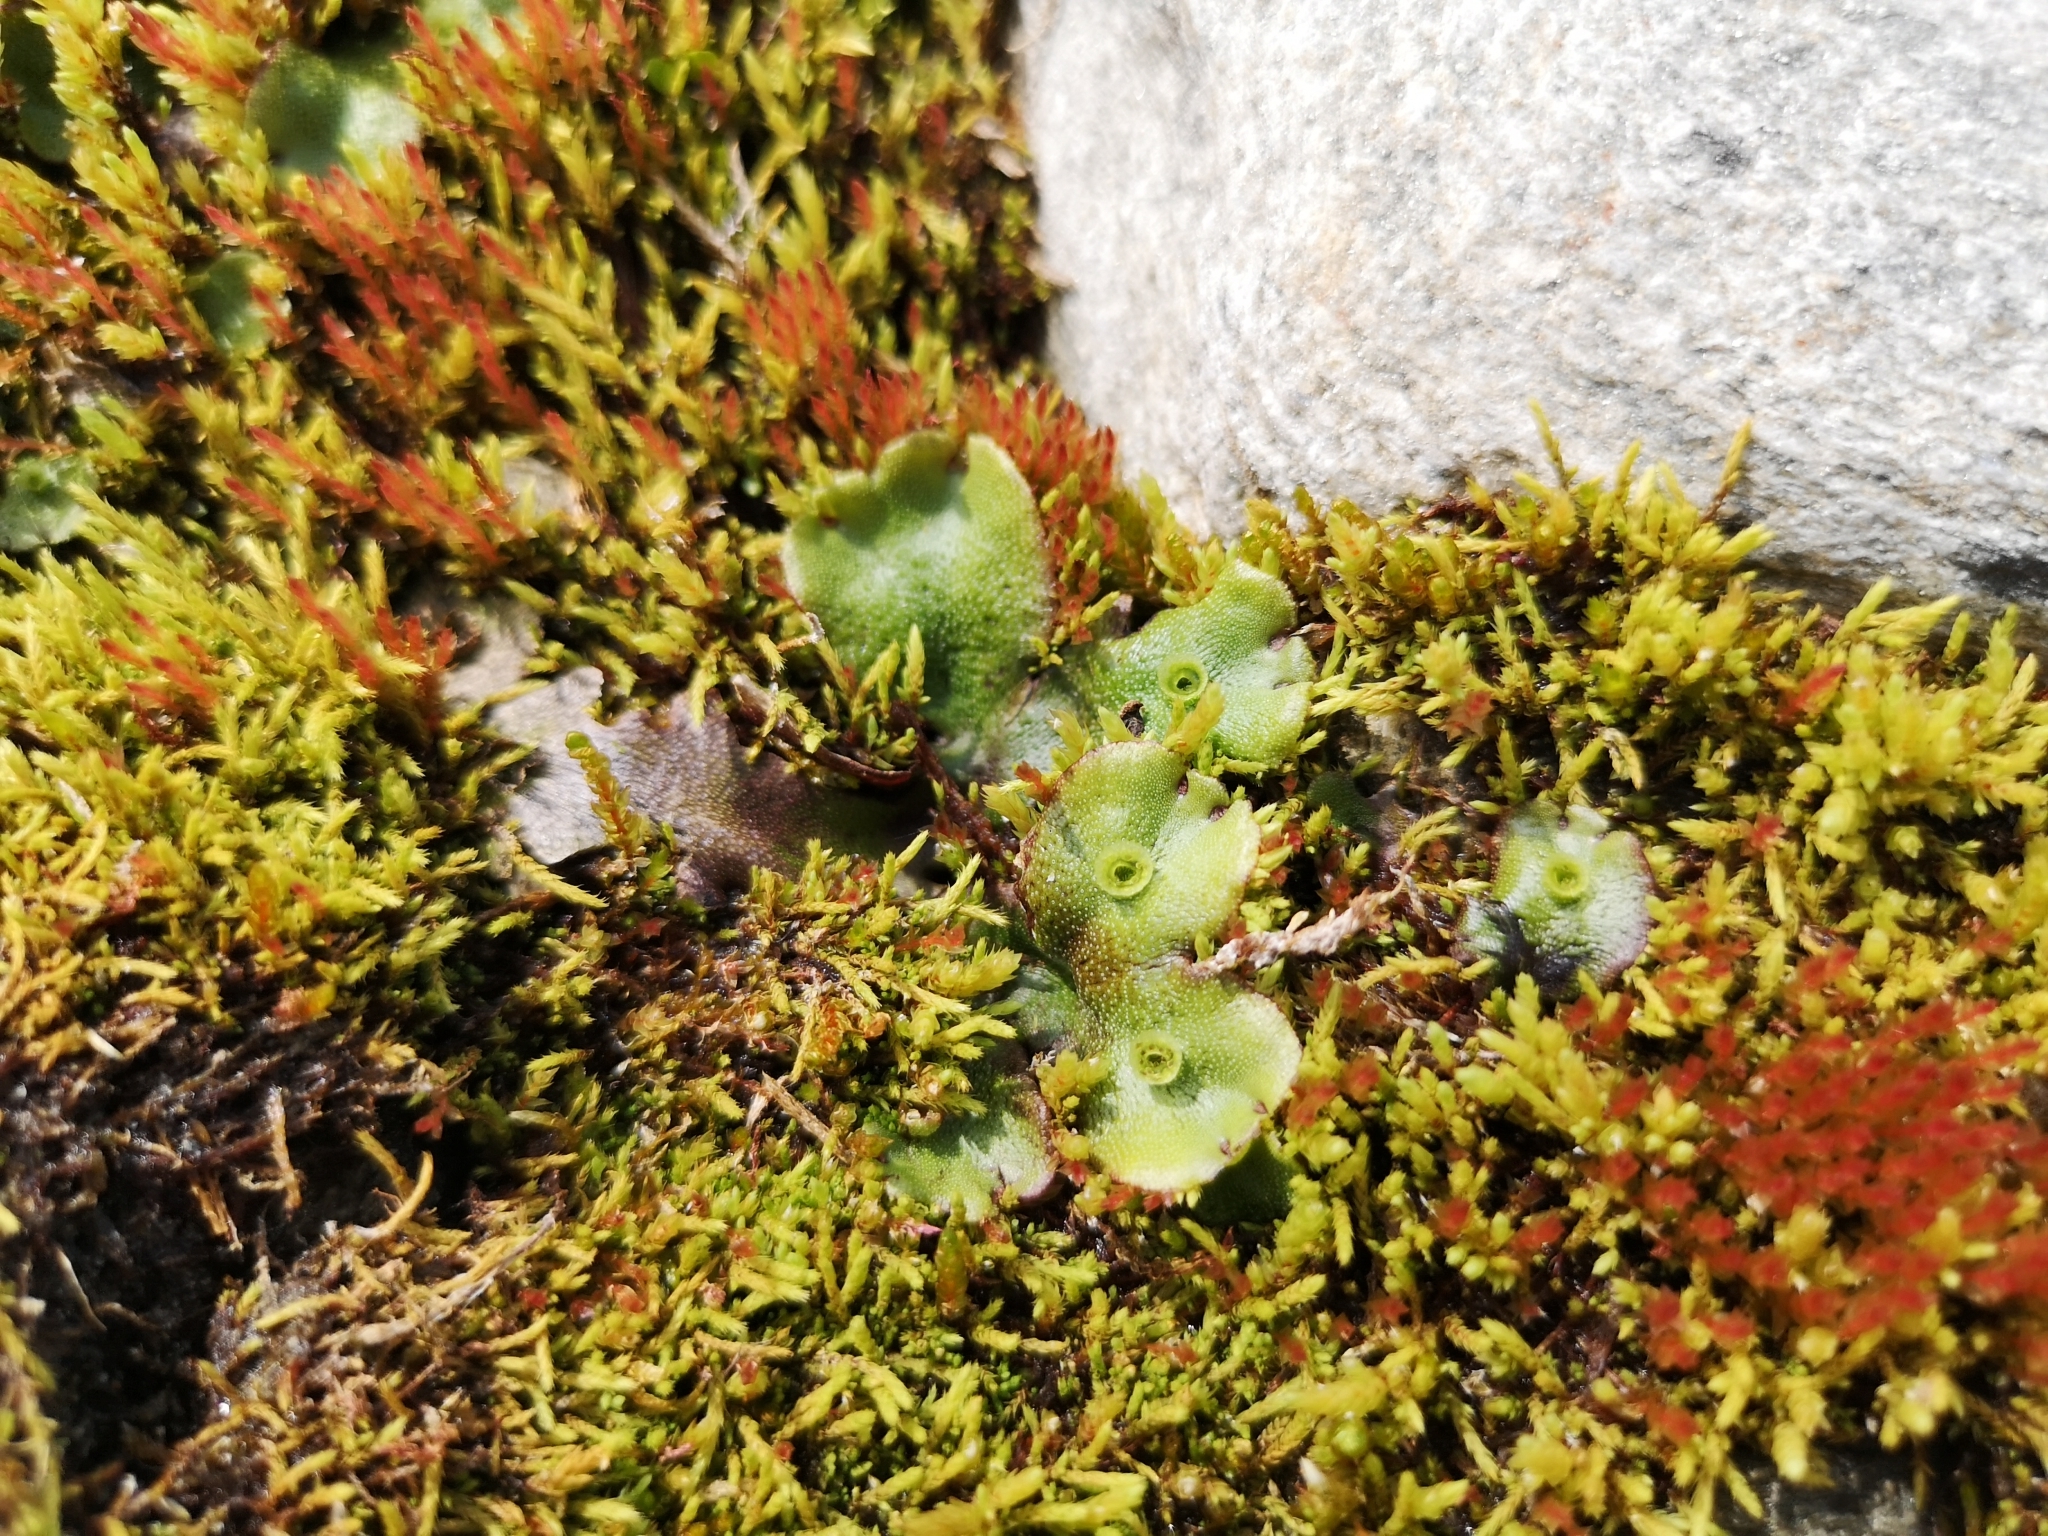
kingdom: Plantae
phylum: Marchantiophyta
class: Marchantiopsida
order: Marchantiales
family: Marchantiaceae
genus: Marchantia
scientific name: Marchantia polymorpha
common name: Common liverwort
